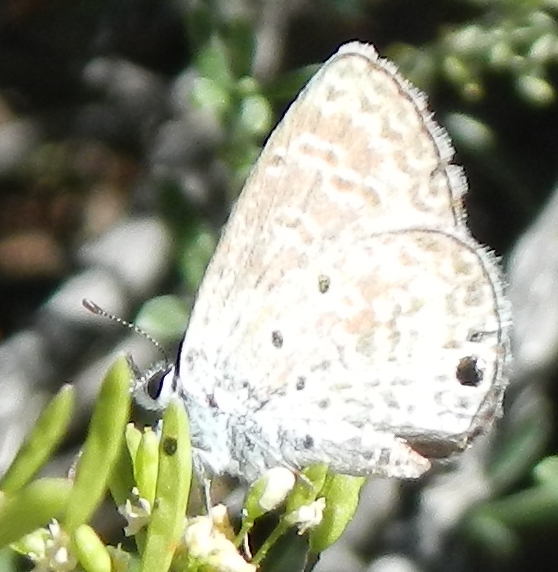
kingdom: Animalia
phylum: Arthropoda
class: Insecta
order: Lepidoptera
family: Lycaenidae
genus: Hemiargus
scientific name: Hemiargus ceraunus
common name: Ceraunus blue
